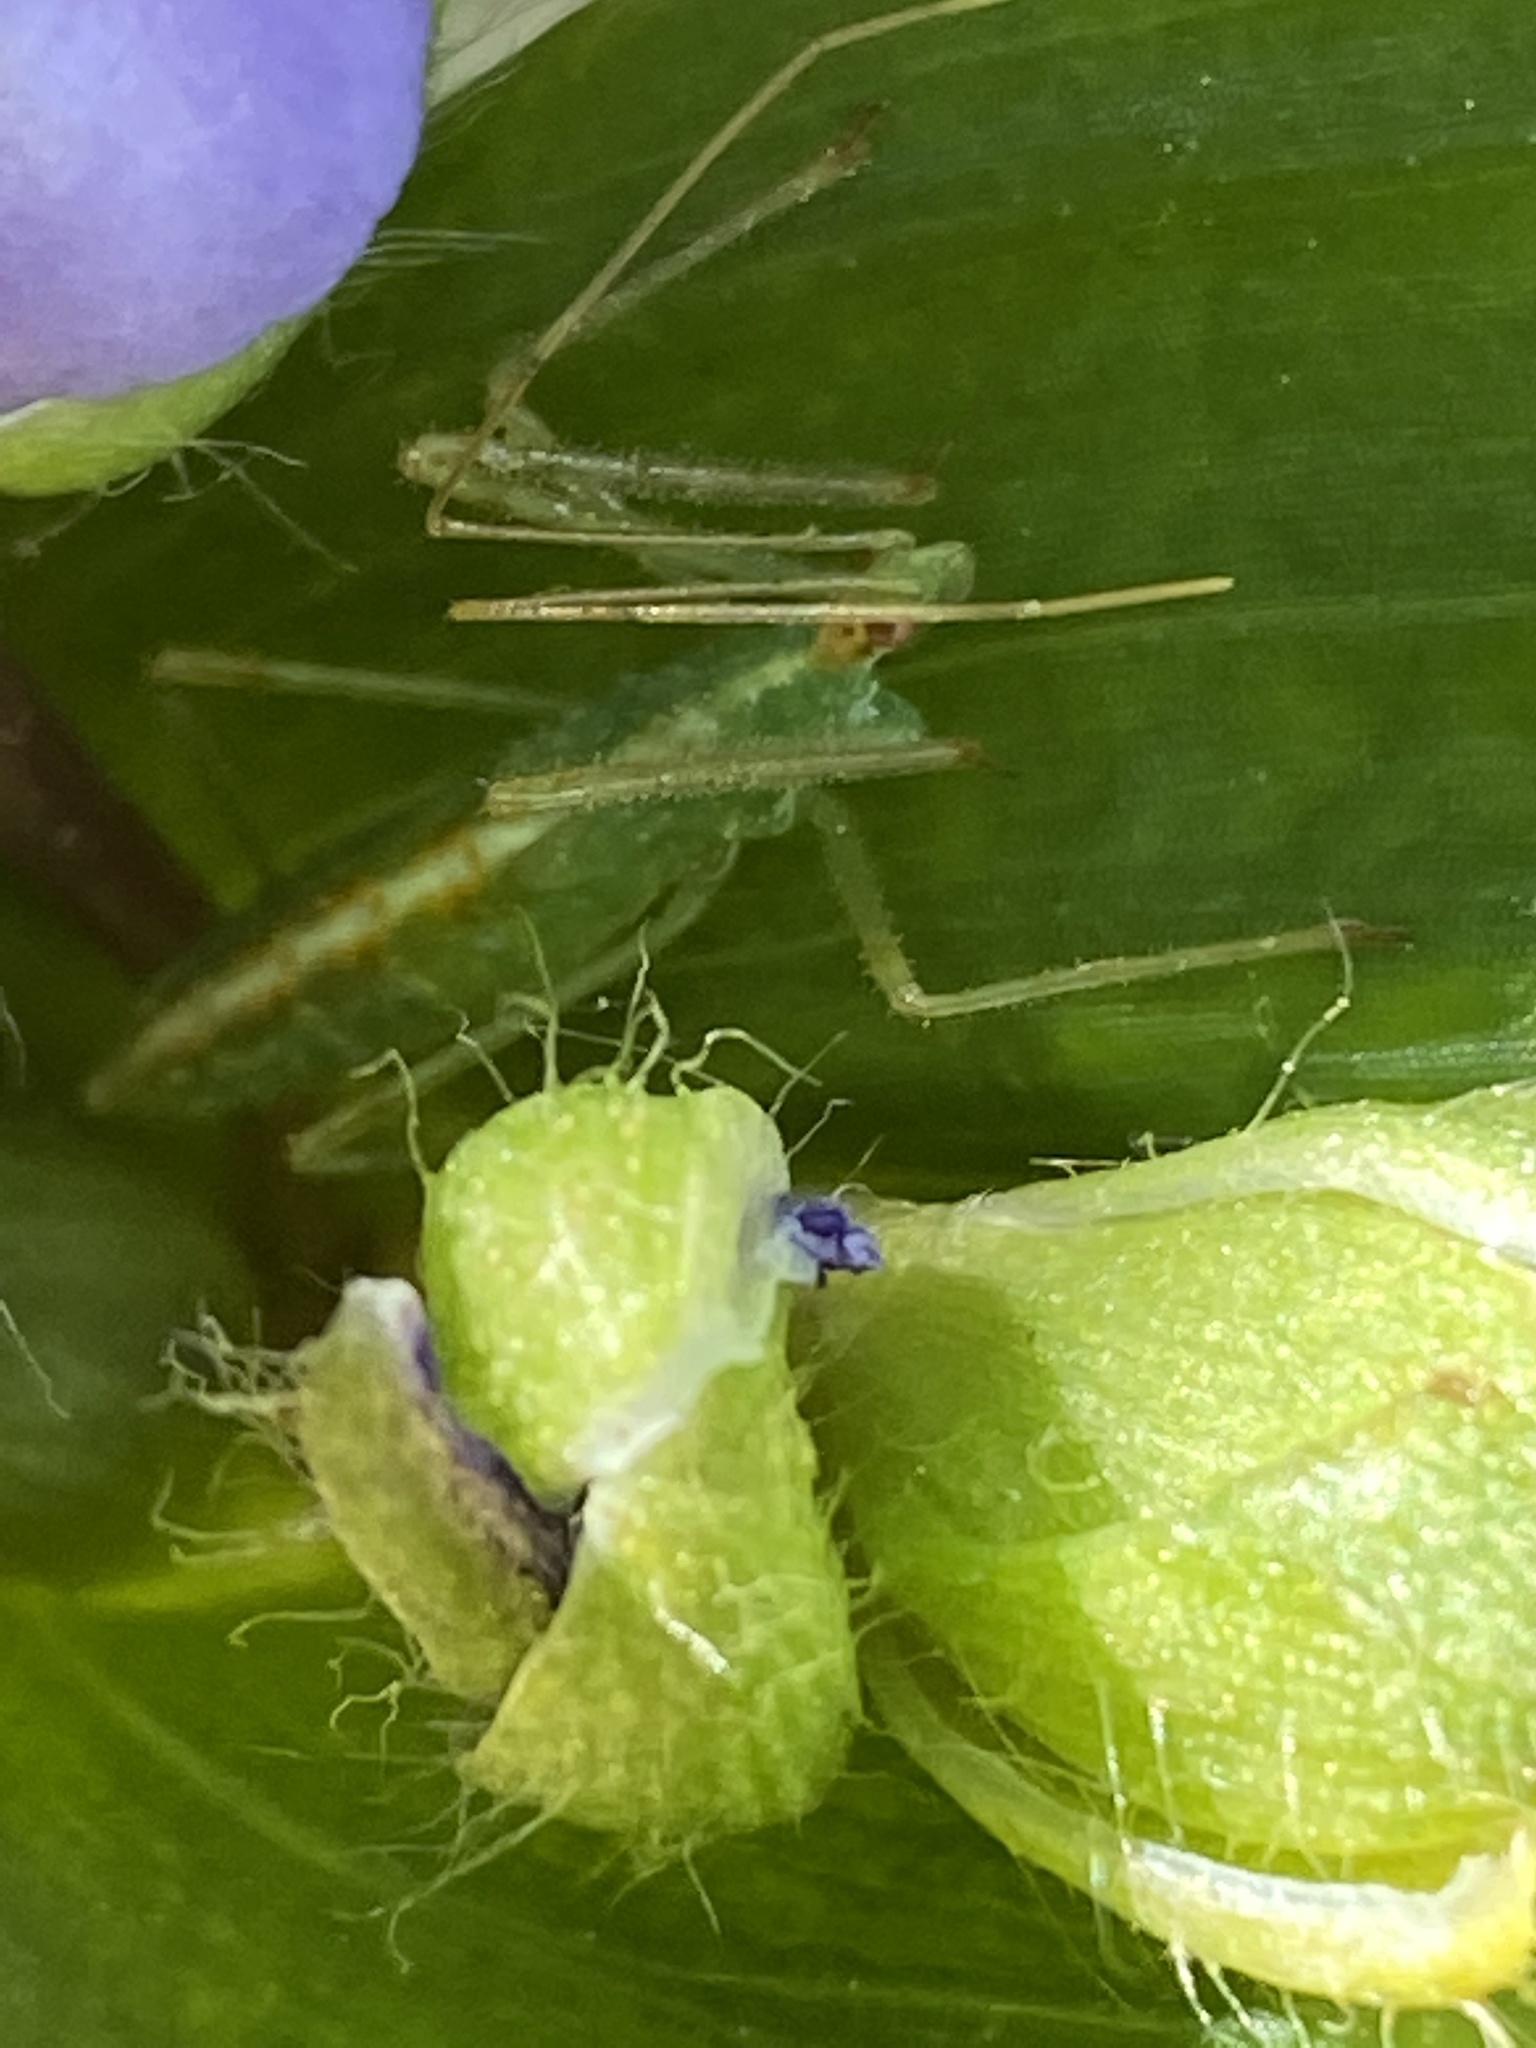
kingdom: Animalia
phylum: Arthropoda
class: Insecta
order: Hemiptera
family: Reduviidae
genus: Zelus
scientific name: Zelus luridus
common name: Pale green assassin bug
